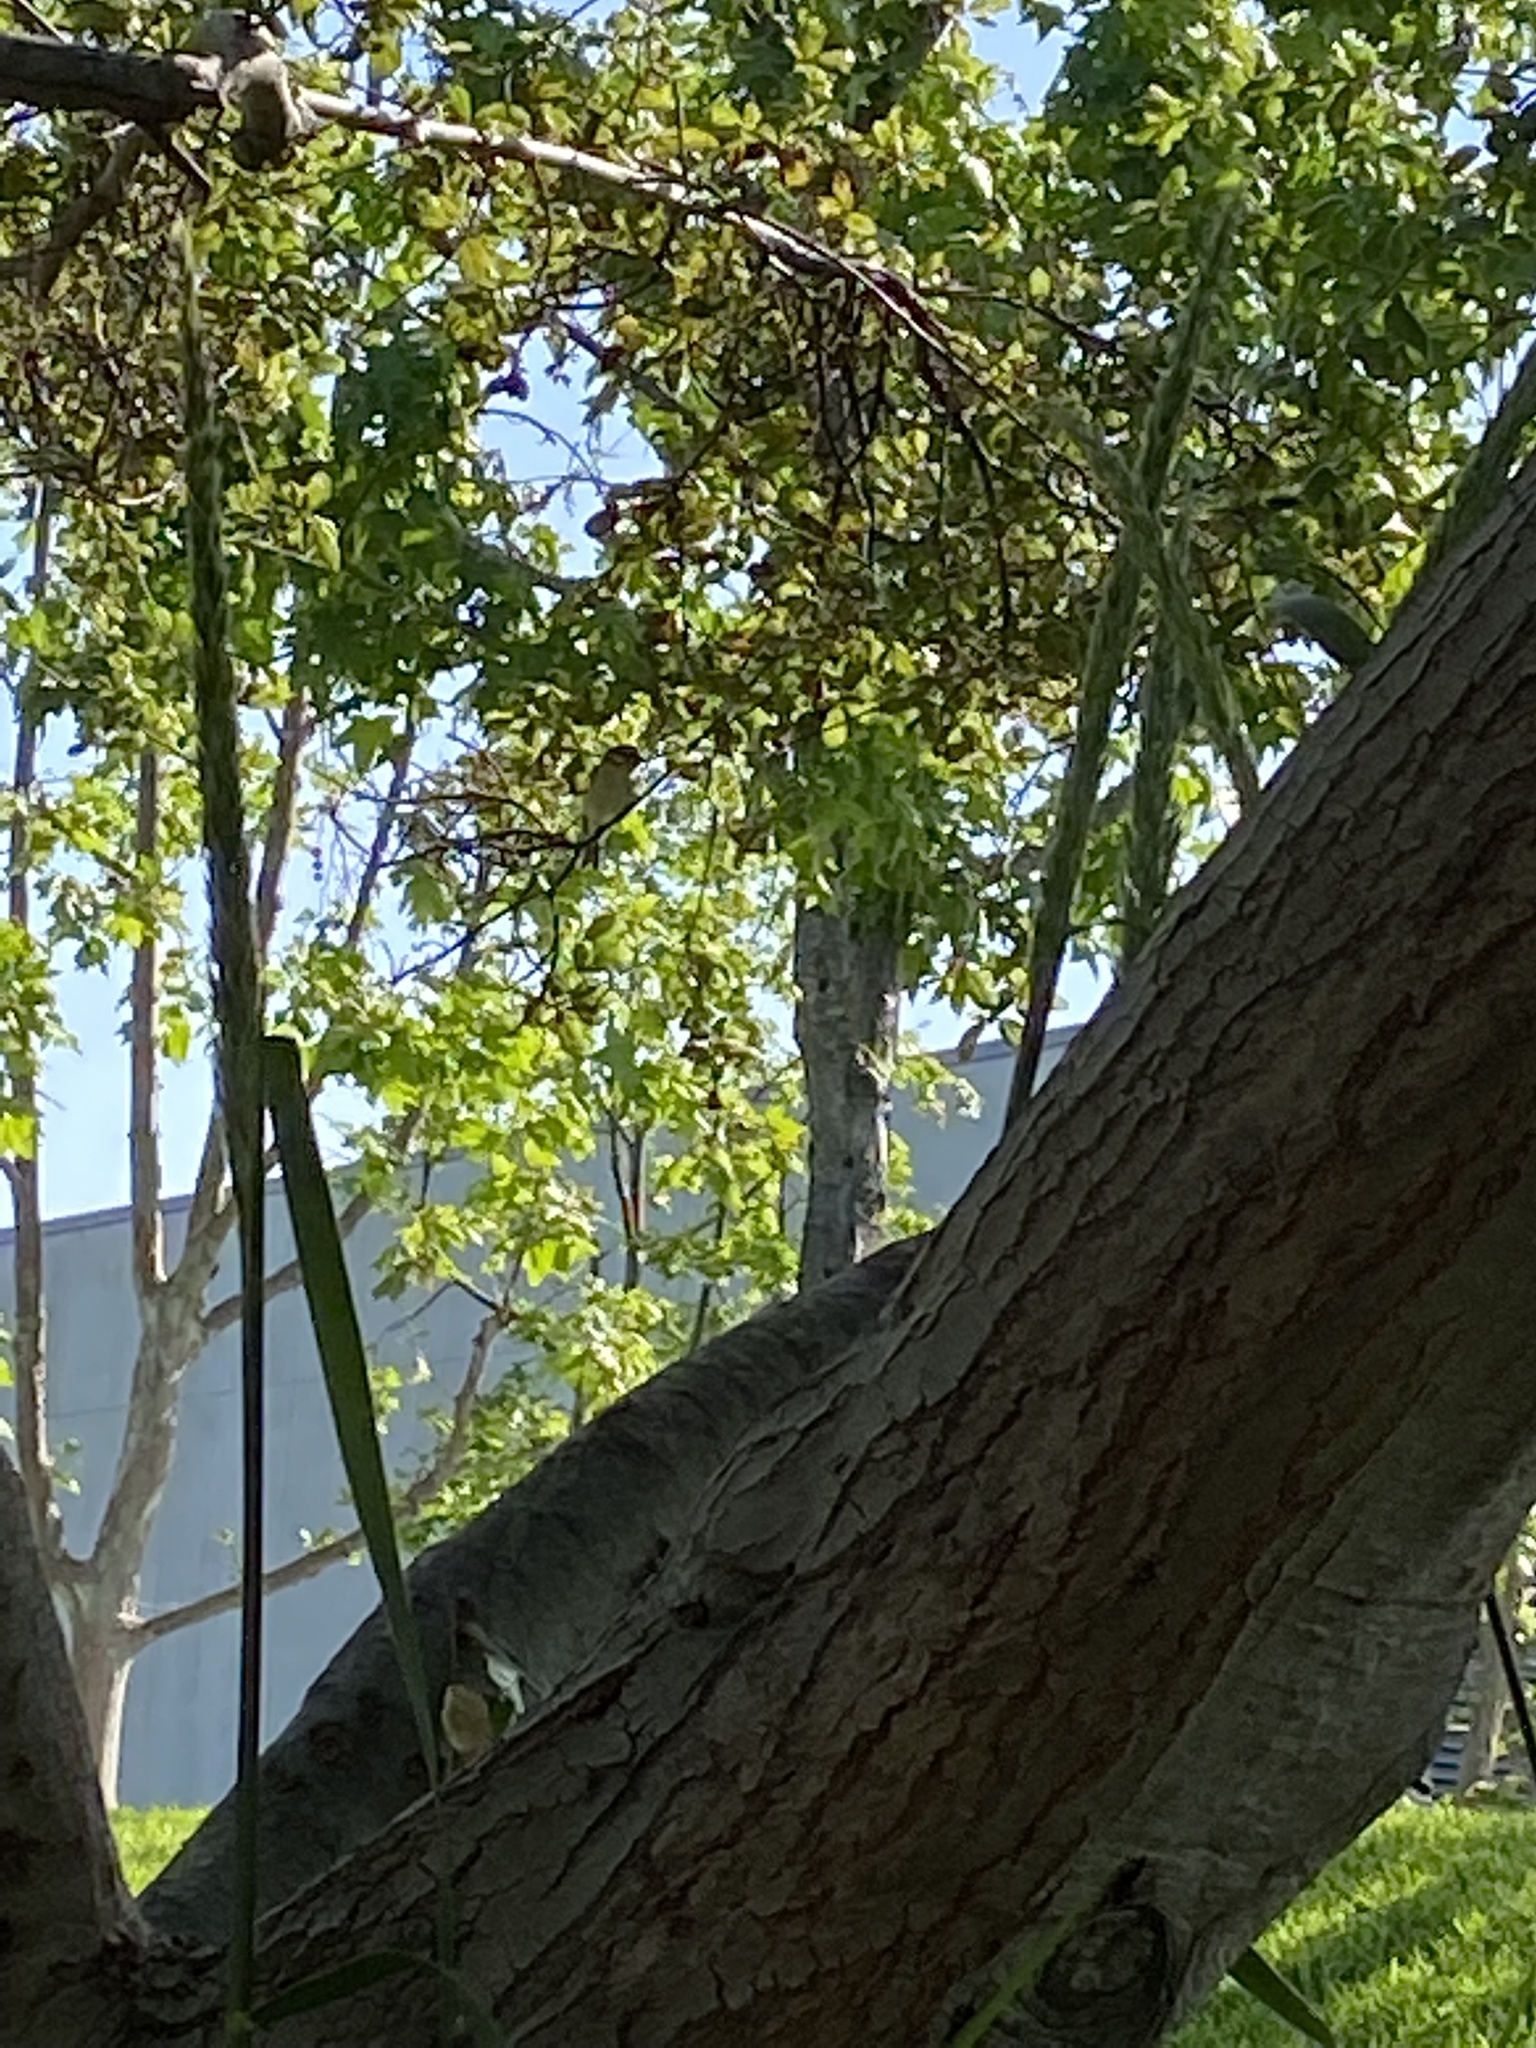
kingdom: Animalia
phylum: Chordata
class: Aves
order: Passeriformes
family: Vireonidae
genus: Vireo
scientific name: Vireo gilvus
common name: Warbling vireo
